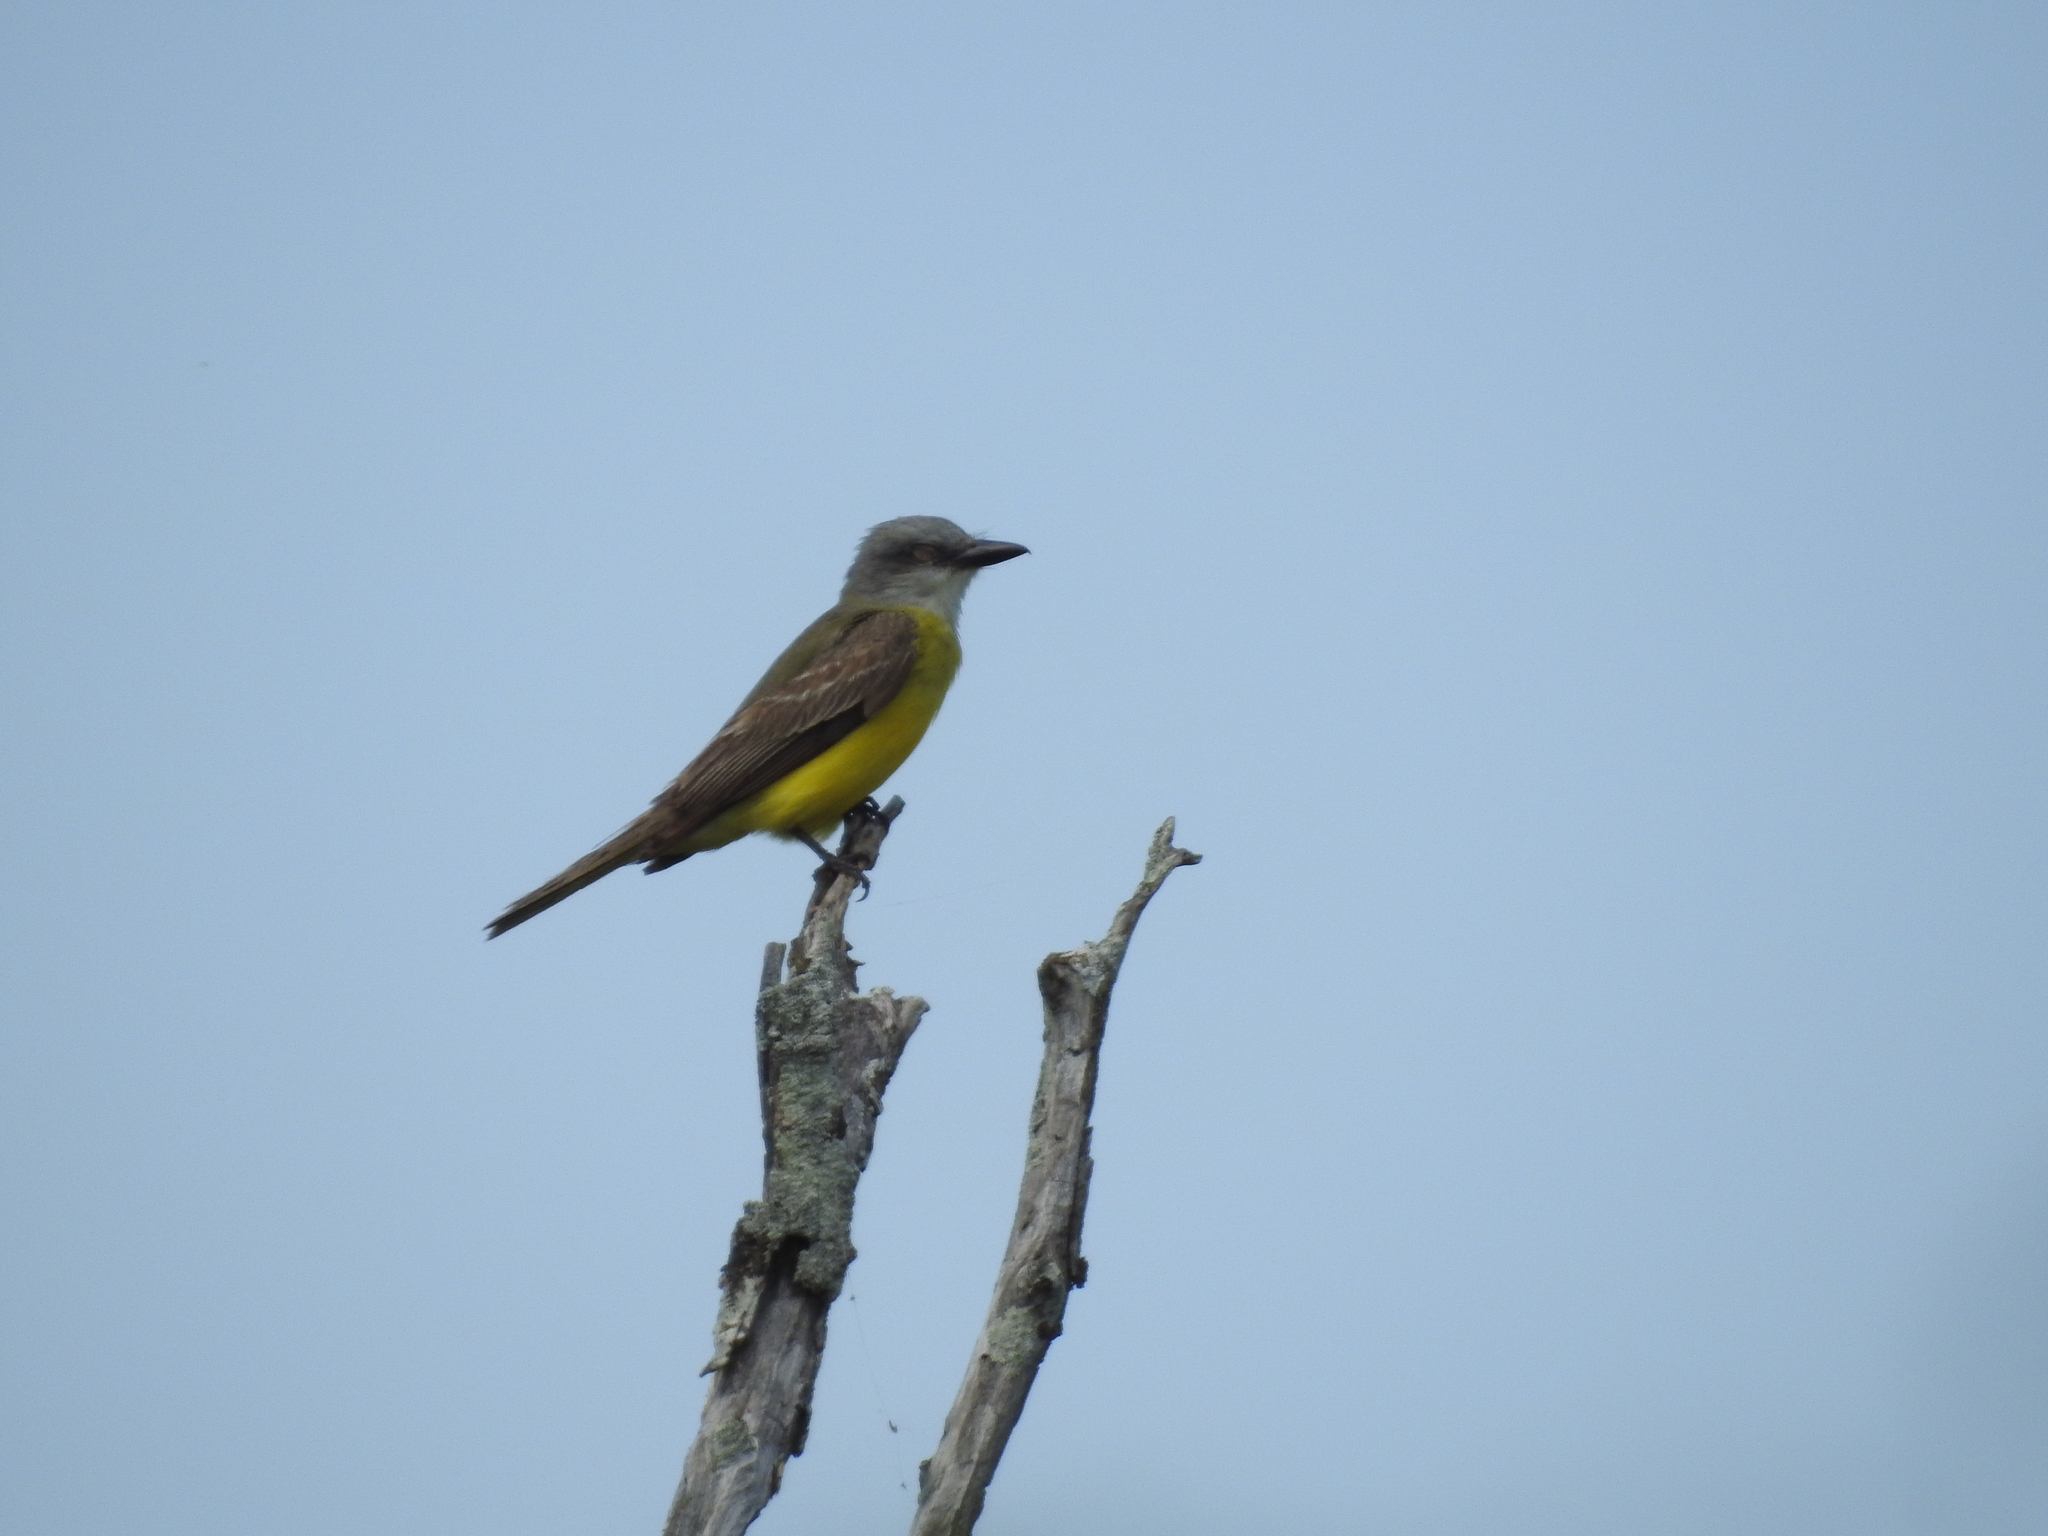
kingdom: Animalia
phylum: Chordata
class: Aves
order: Passeriformes
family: Tyrannidae
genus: Tyrannus
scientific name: Tyrannus
